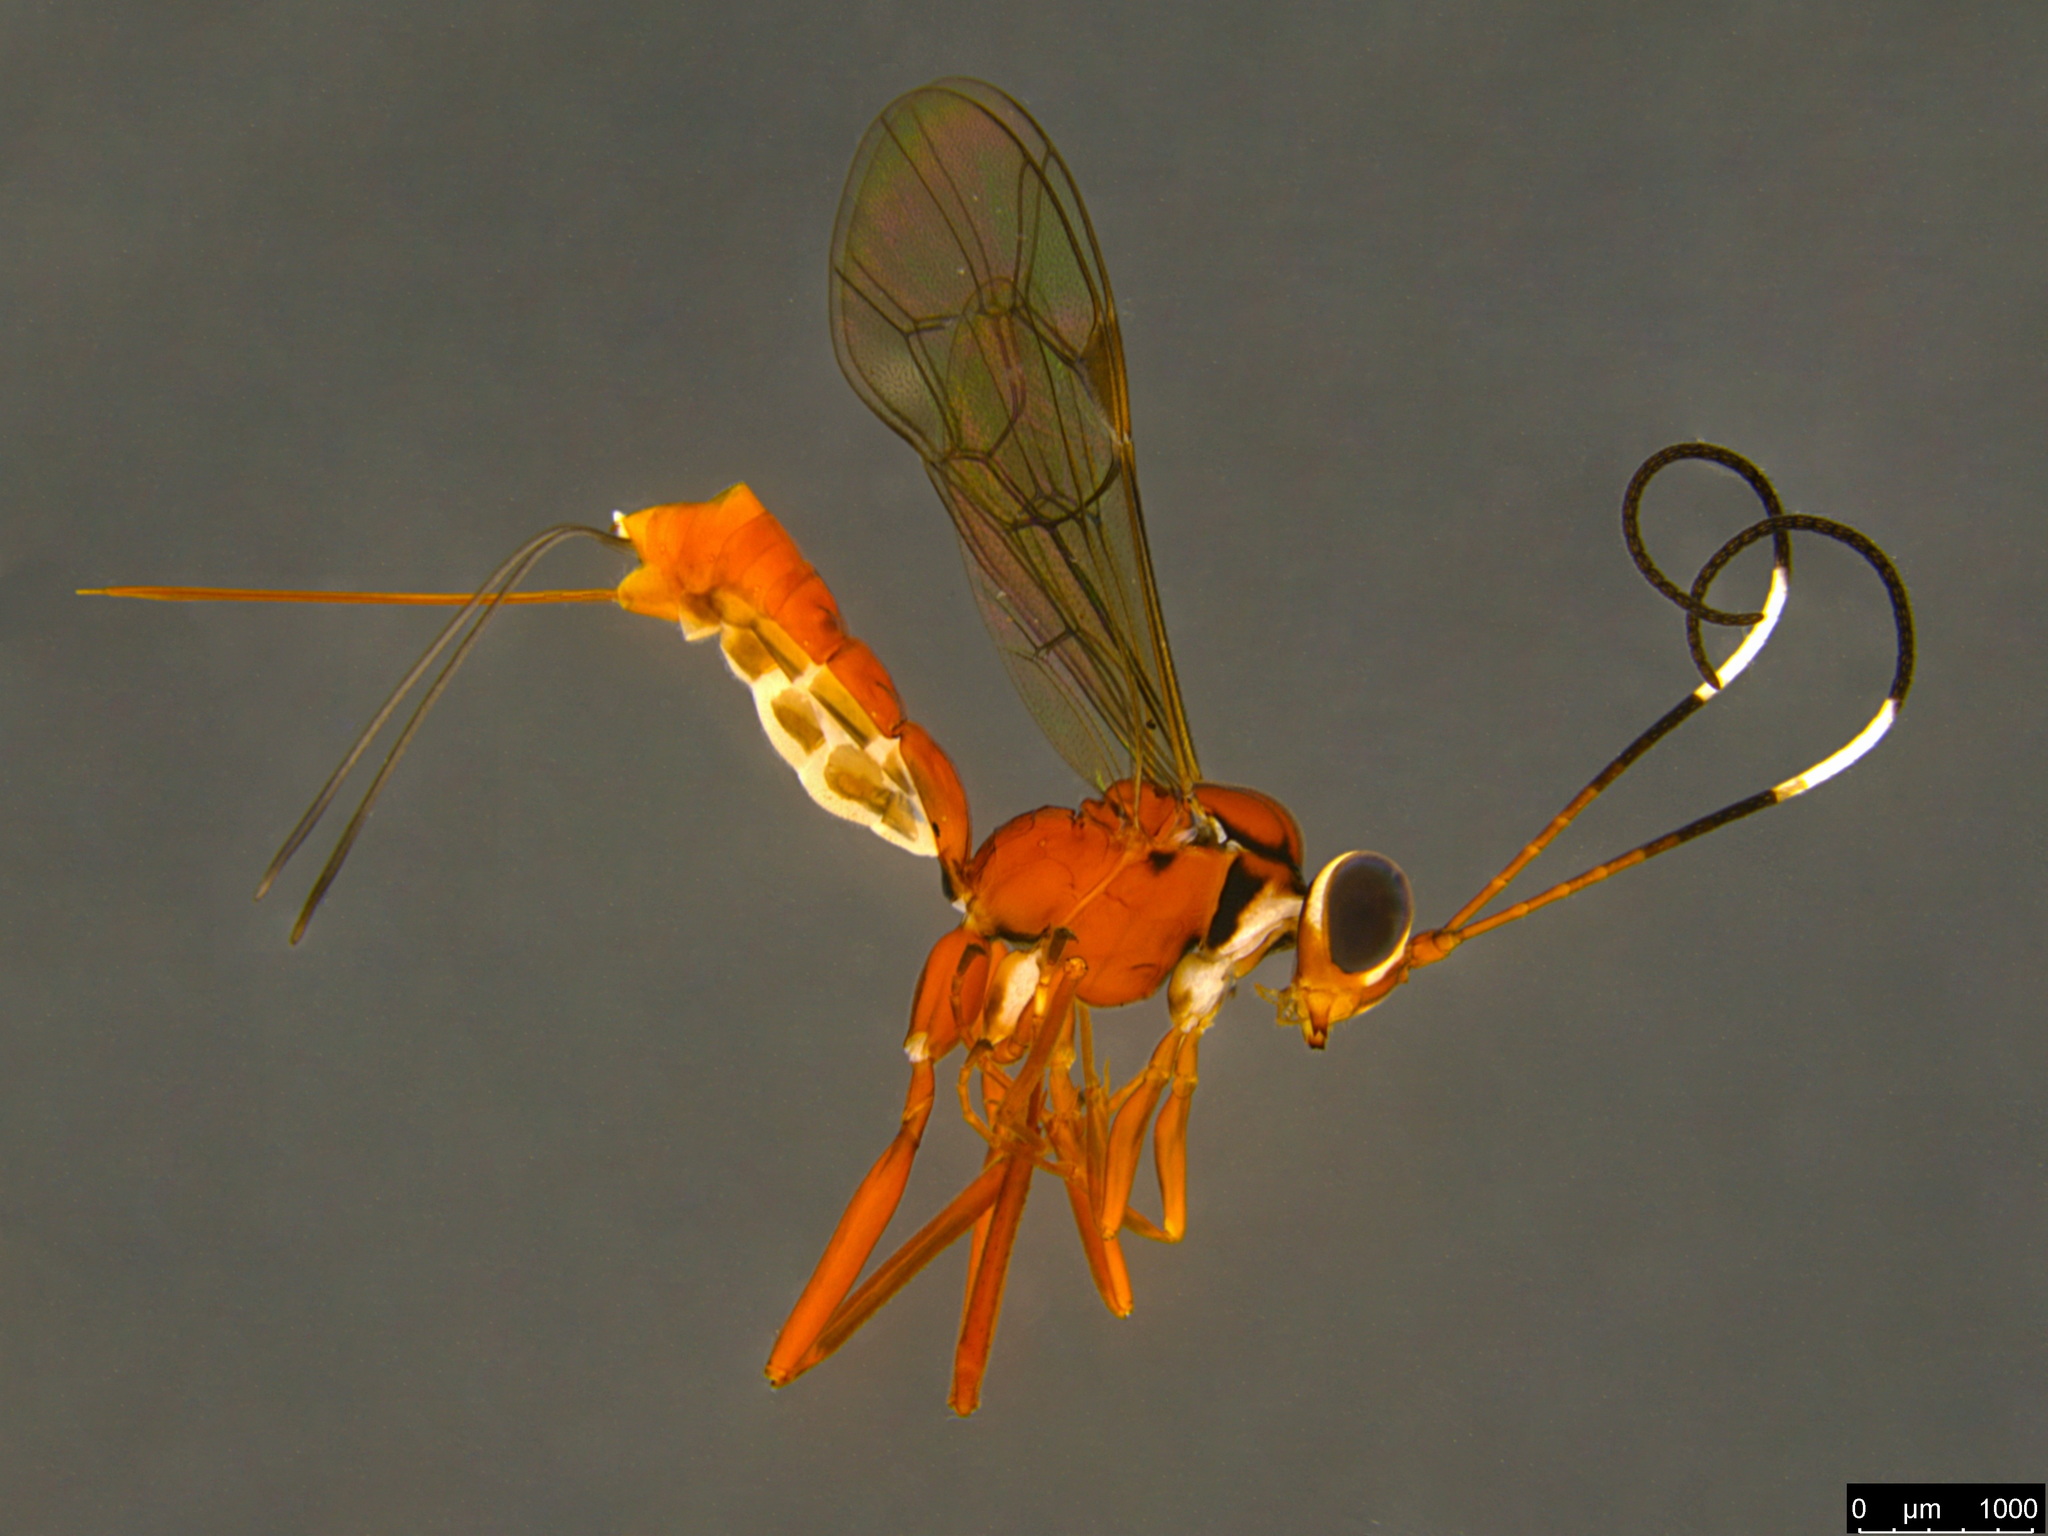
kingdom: Animalia
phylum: Arthropoda
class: Insecta
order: Hymenoptera
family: Ichneumonidae
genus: Australoglypta
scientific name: Australoglypta
